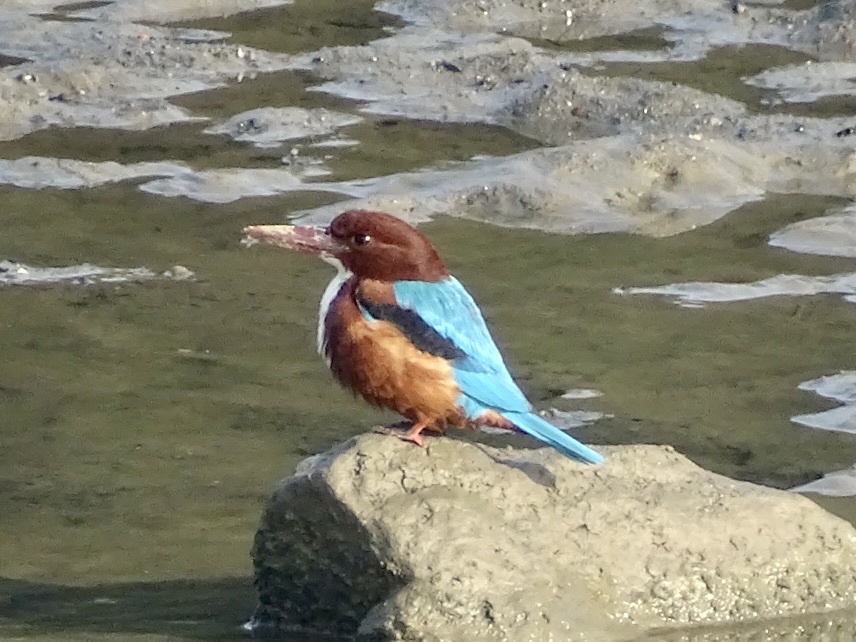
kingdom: Animalia
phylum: Chordata
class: Aves
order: Coraciiformes
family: Alcedinidae
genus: Halcyon
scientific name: Halcyon smyrnensis
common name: White-throated kingfisher
